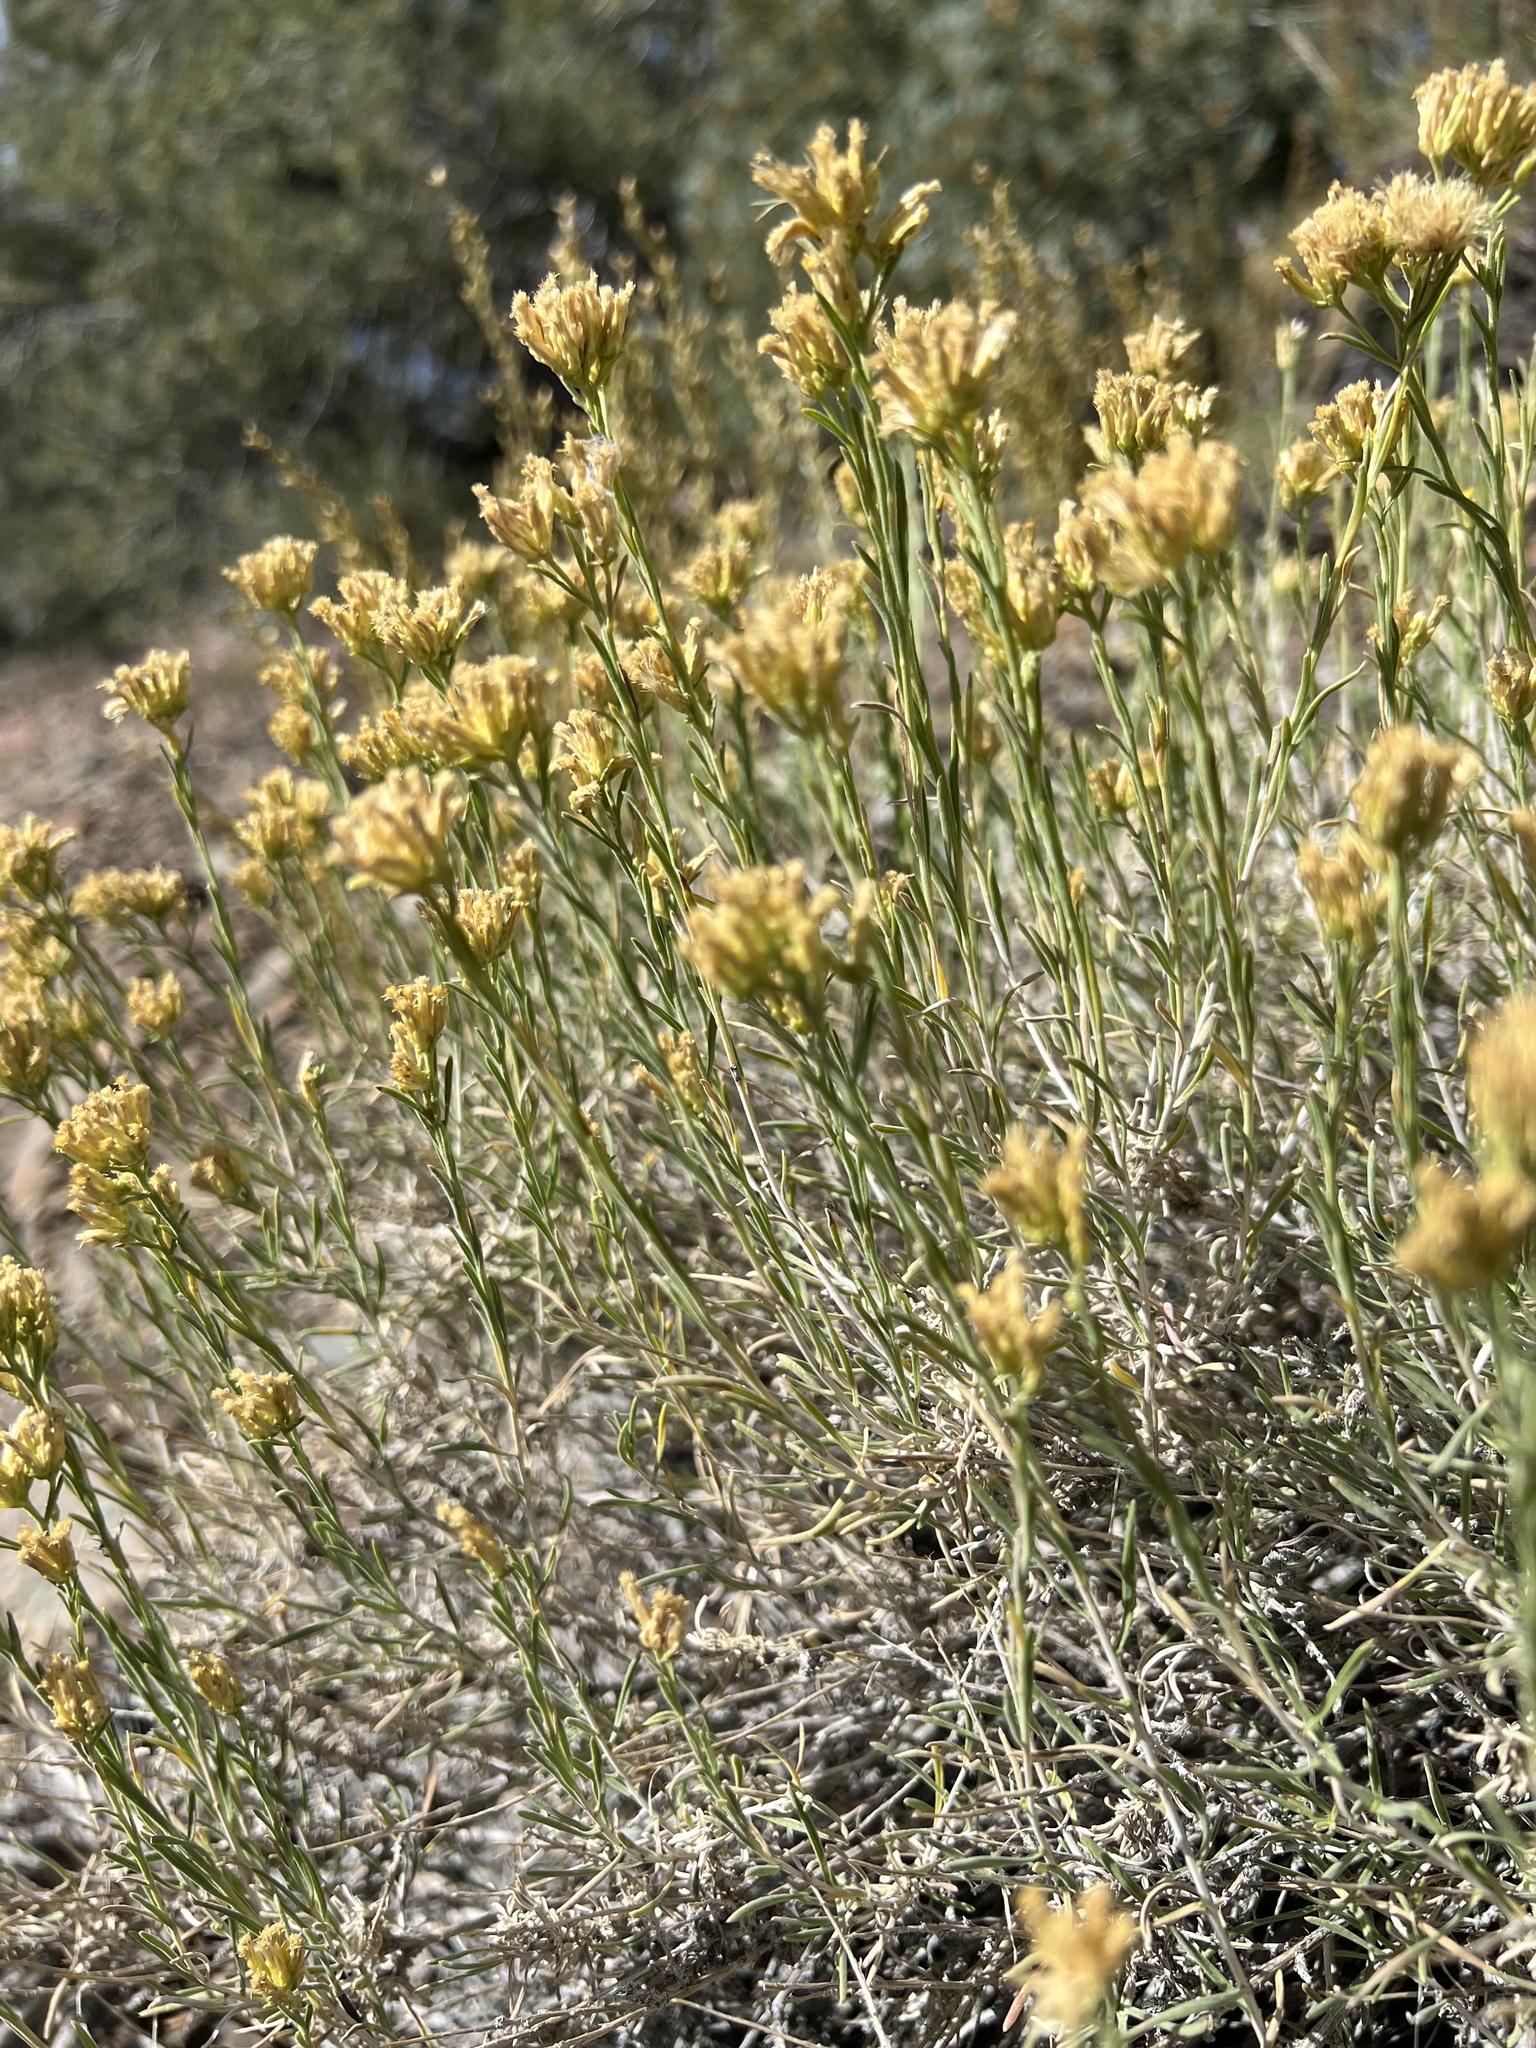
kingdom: Plantae
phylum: Tracheophyta
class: Magnoliopsida
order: Asterales
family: Asteraceae
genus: Chrysothamnus
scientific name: Chrysothamnus viscidiflorus
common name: Yellow rabbitbrush
